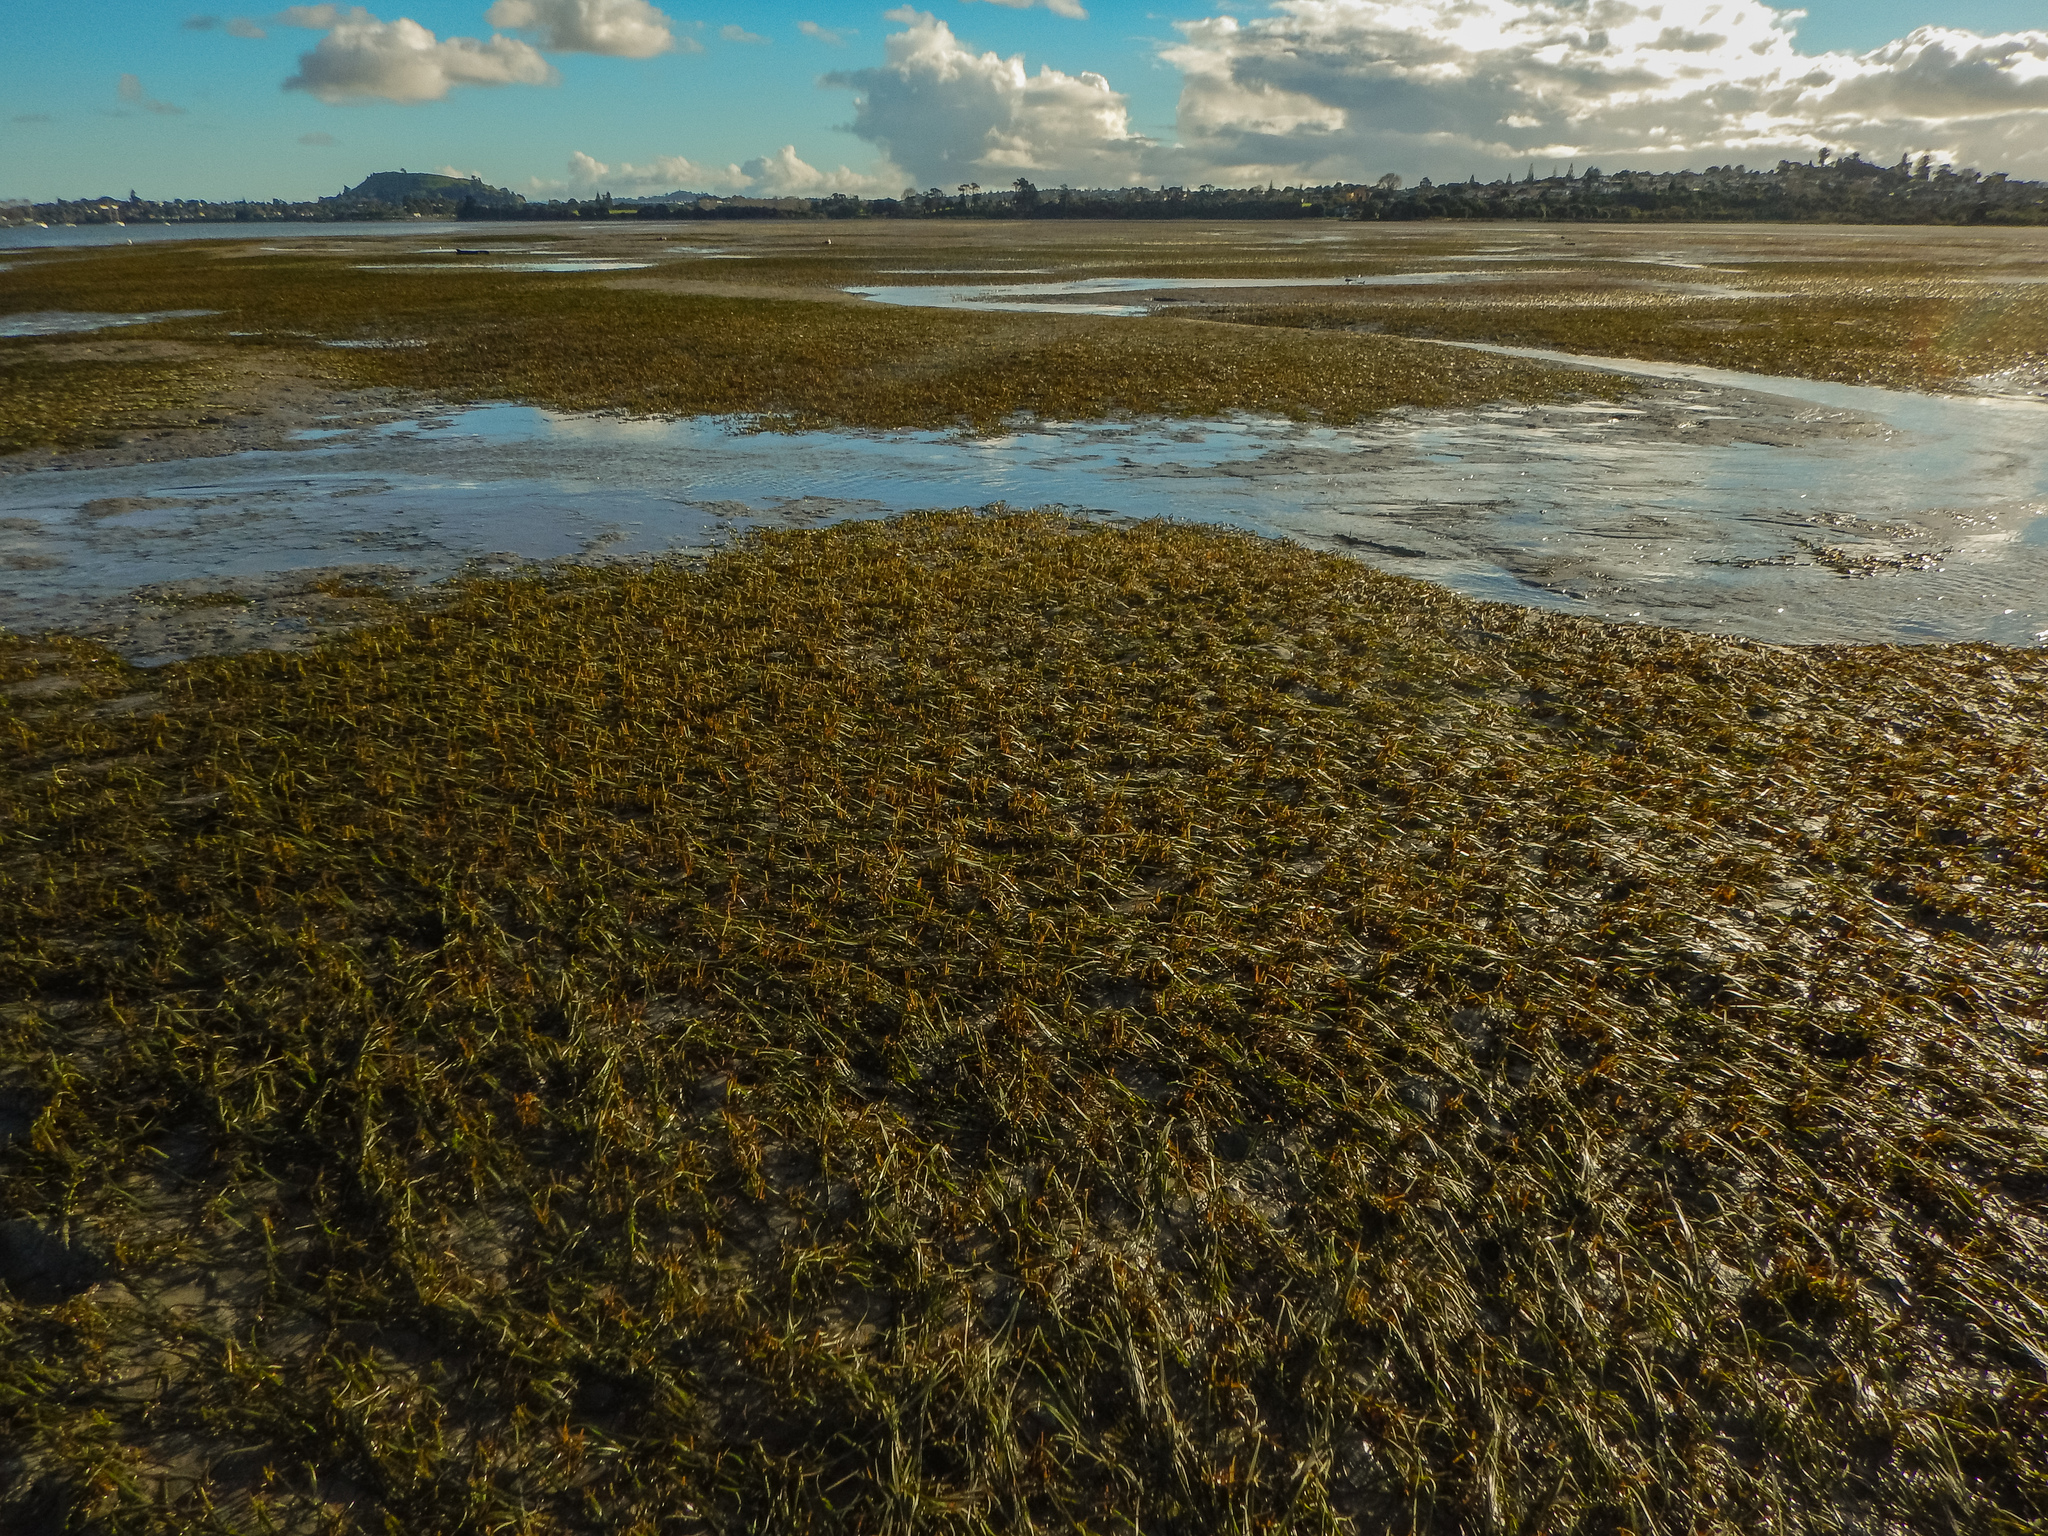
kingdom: Plantae
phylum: Tracheophyta
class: Liliopsida
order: Alismatales
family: Zosteraceae
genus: Zostera
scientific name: Zostera novazelandica
